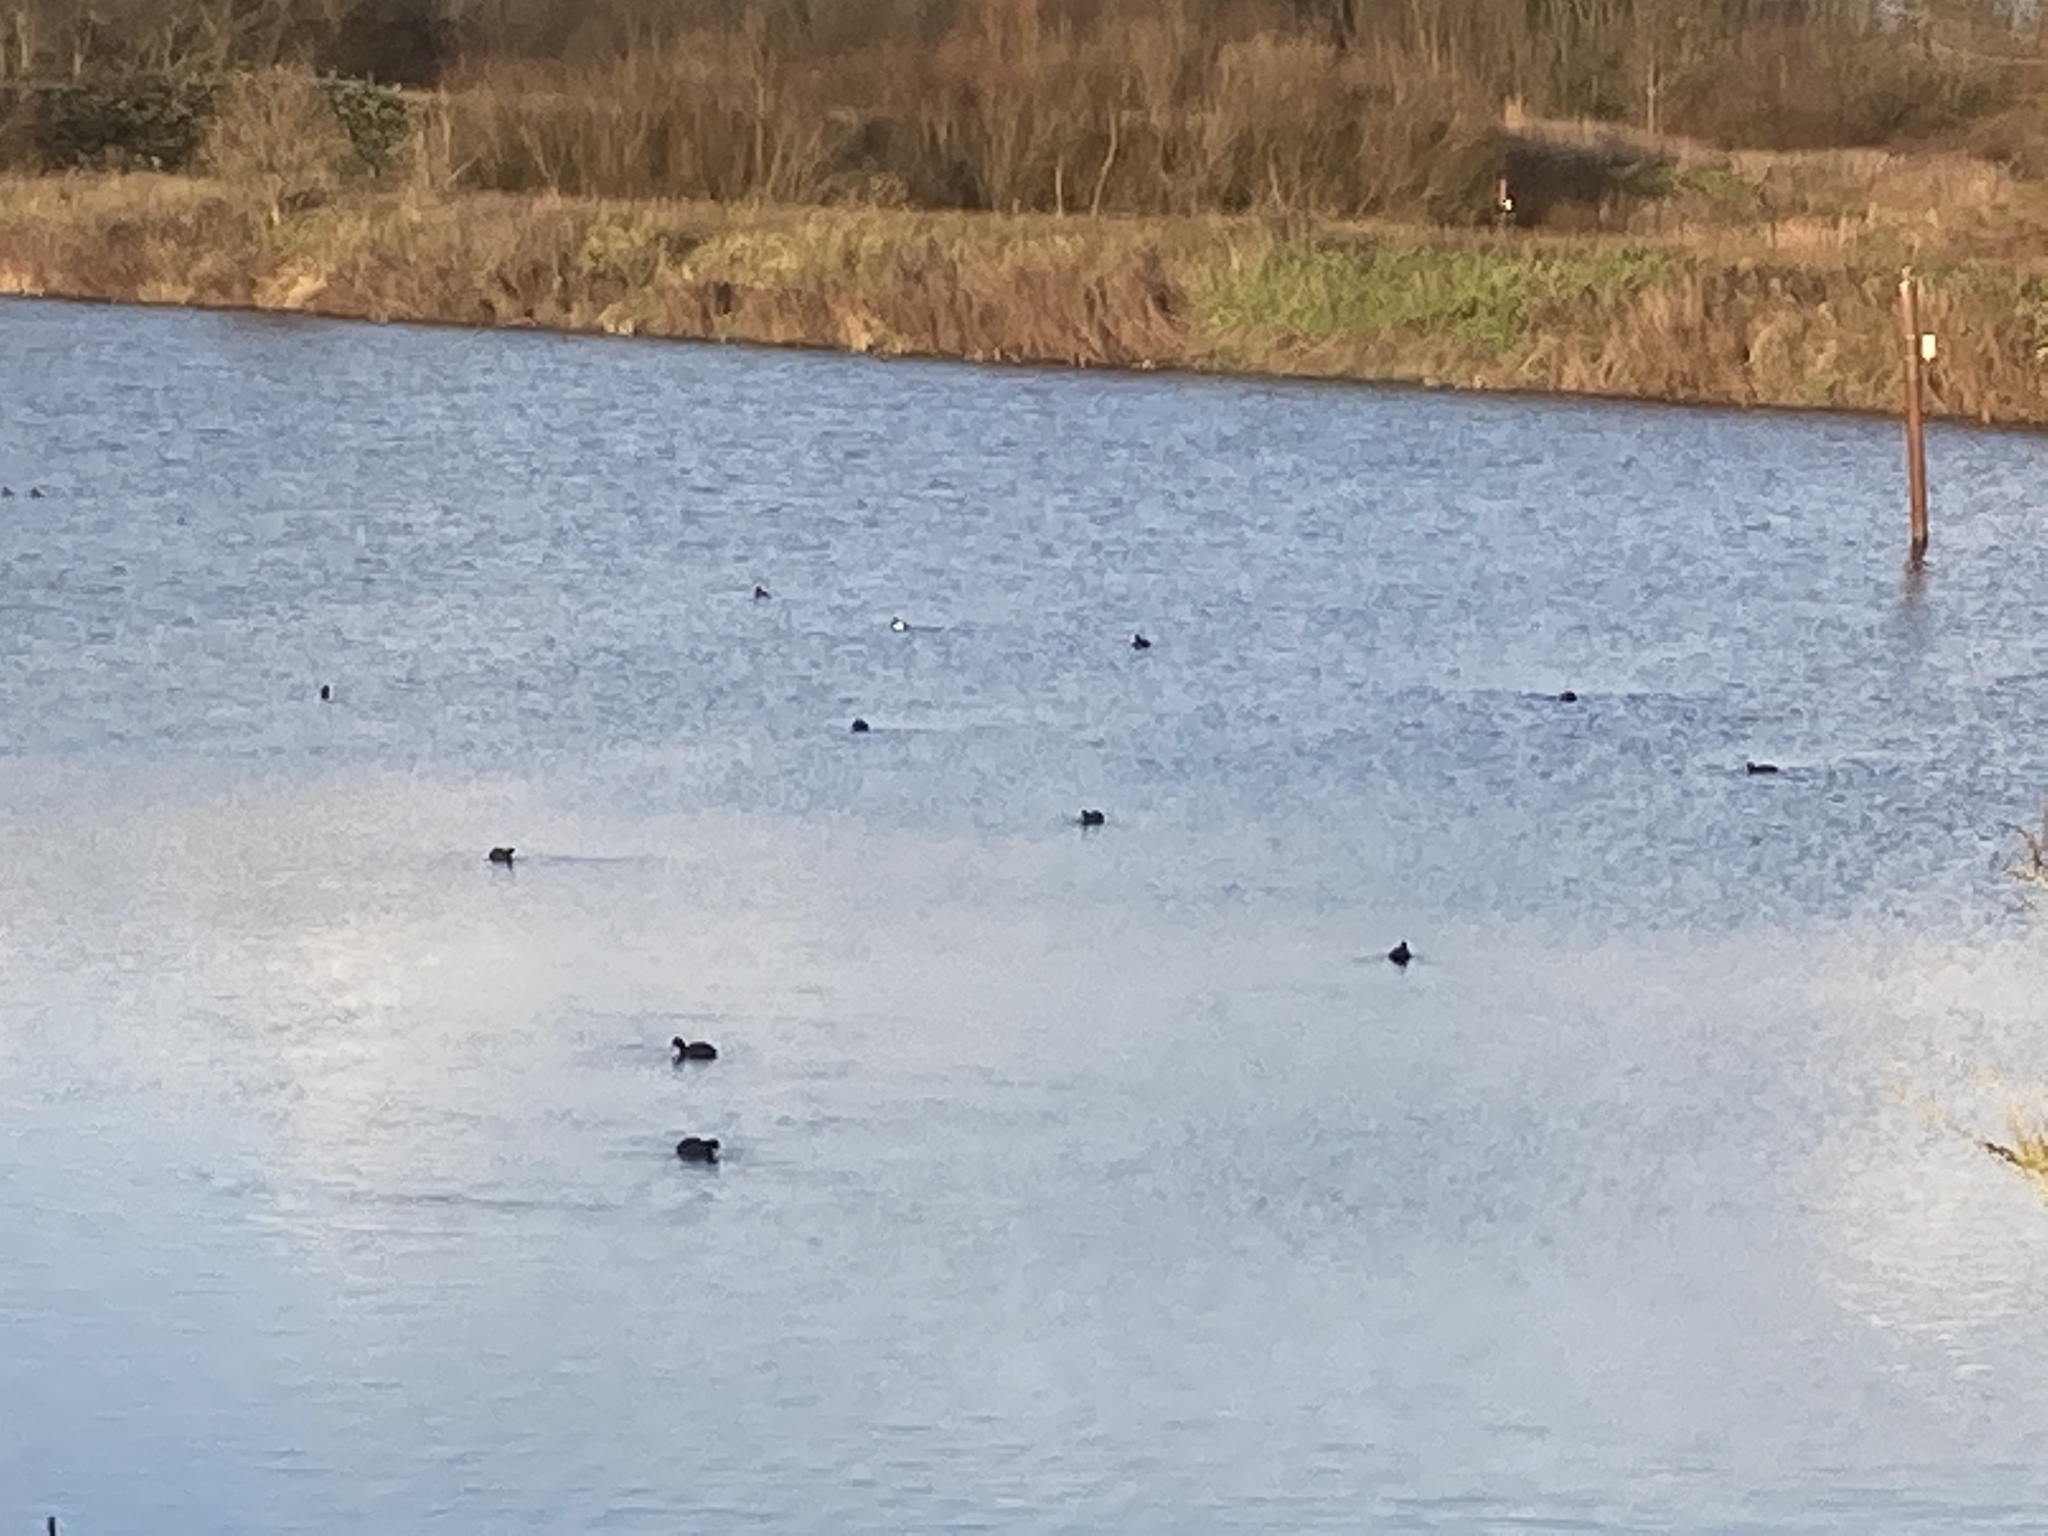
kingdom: Animalia
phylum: Chordata
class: Aves
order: Anseriformes
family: Anatidae
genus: Aythya
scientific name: Aythya fuligula
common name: Tufted duck
